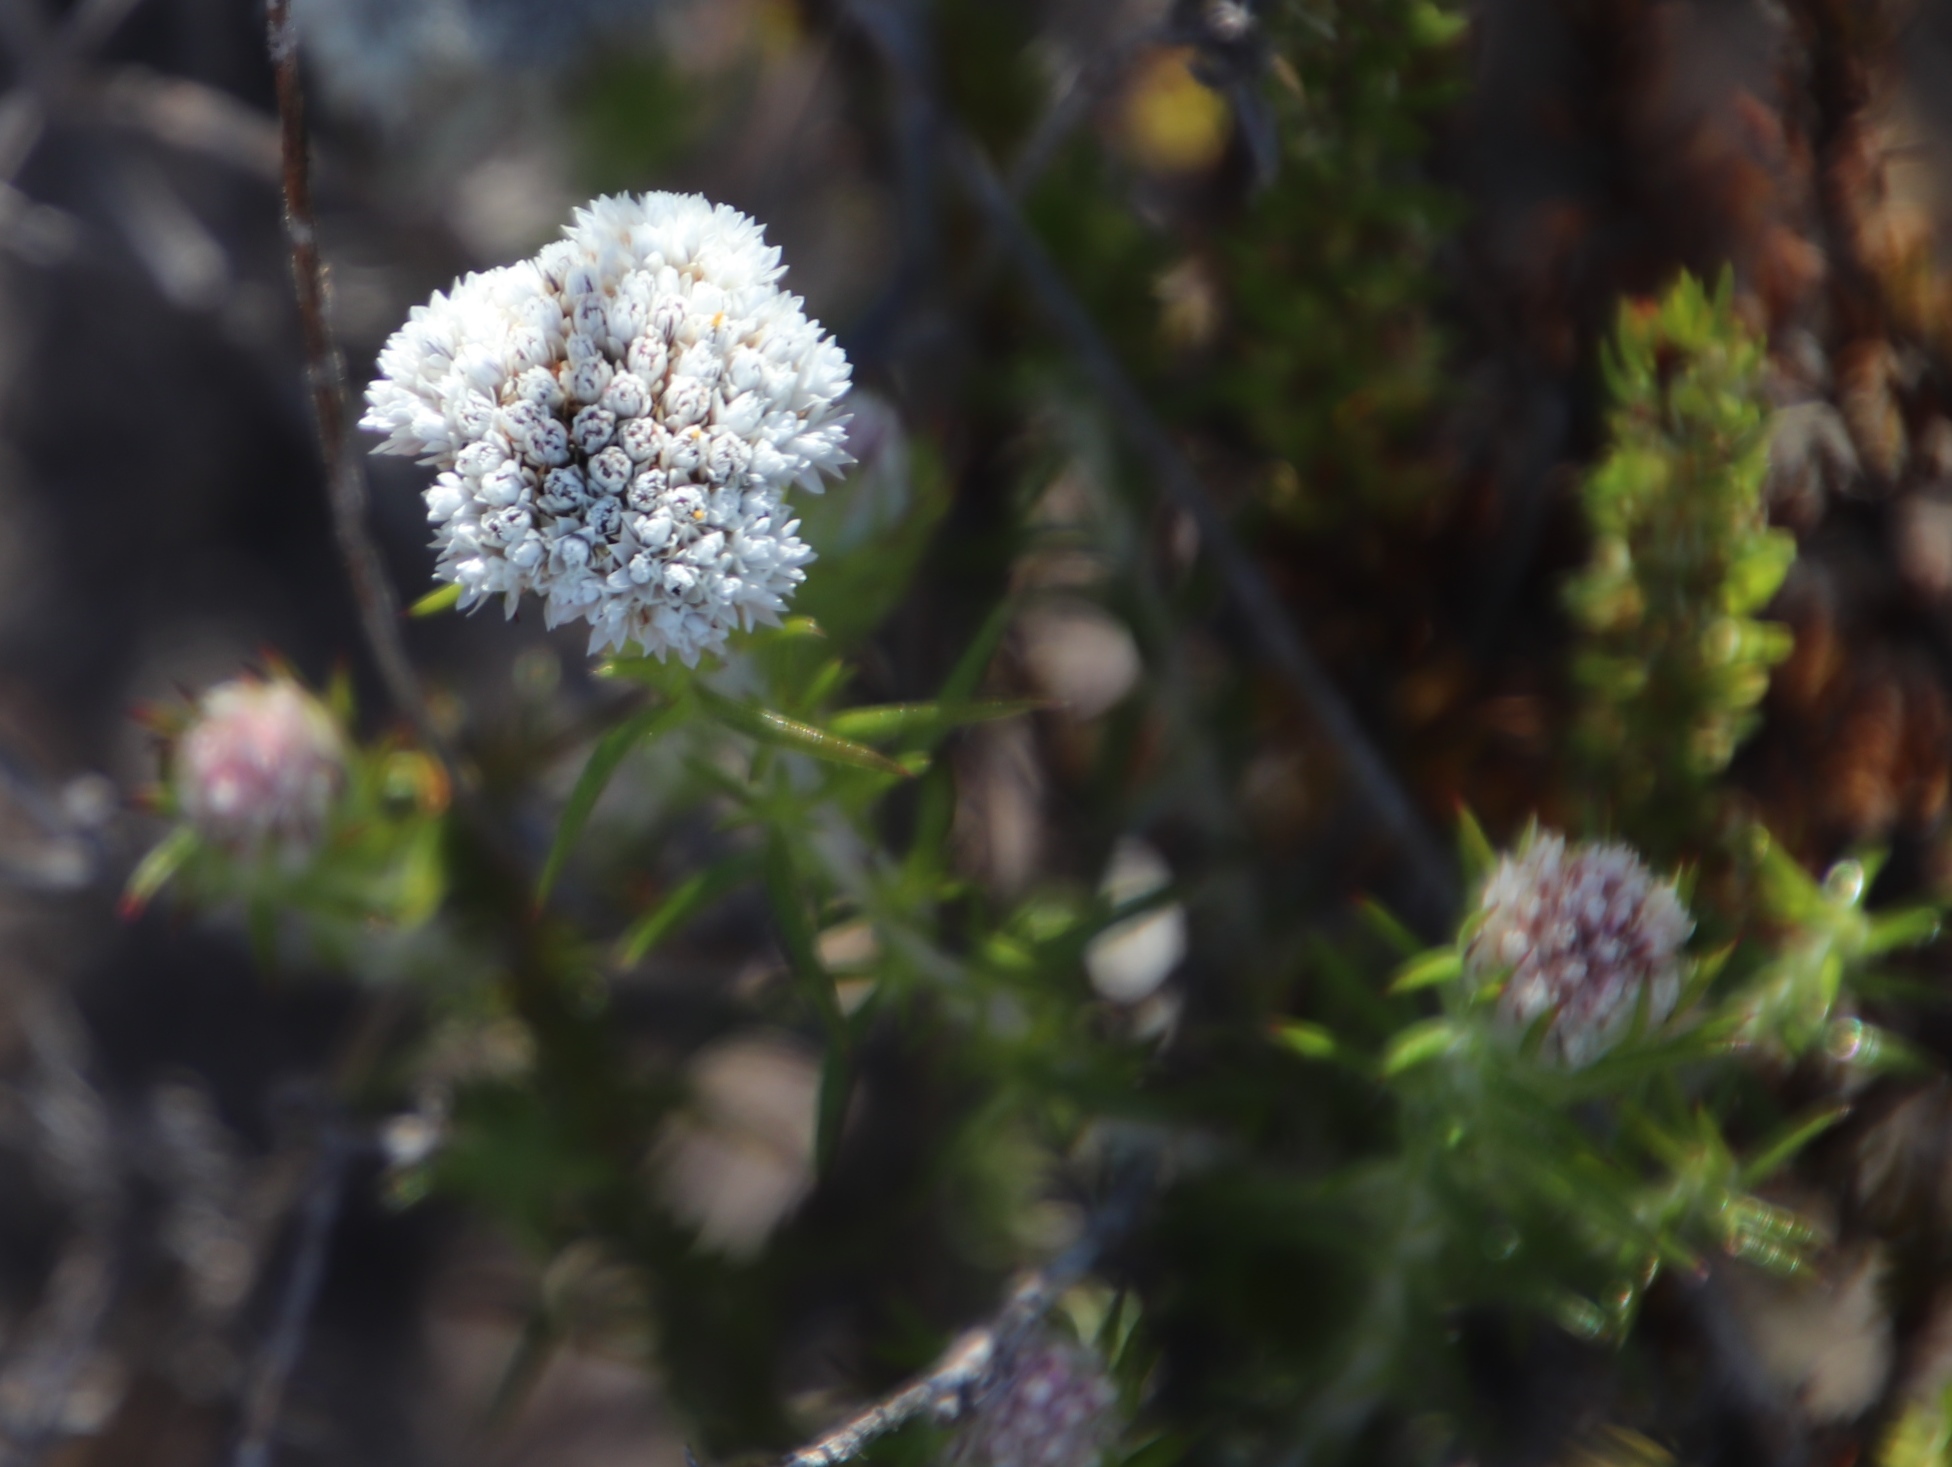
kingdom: Plantae
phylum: Tracheophyta
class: Magnoliopsida
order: Asterales
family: Asteraceae
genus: Metalasia
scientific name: Metalasia pulchella
